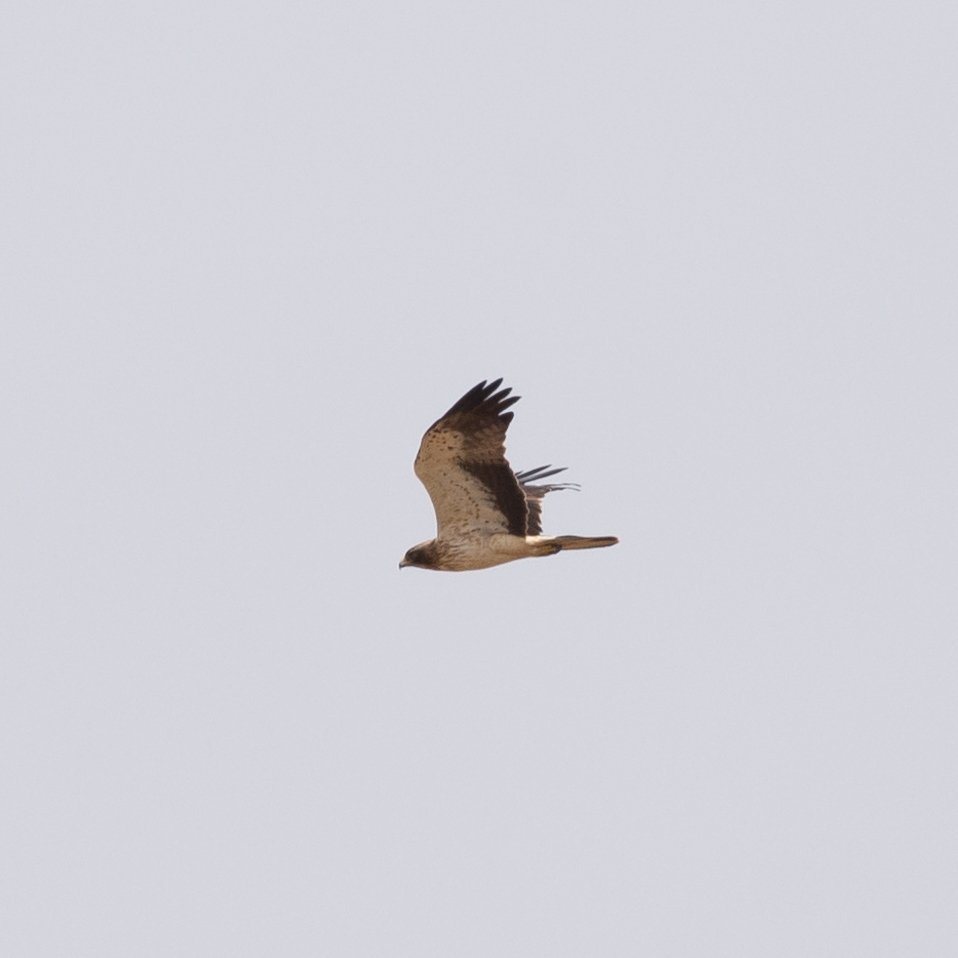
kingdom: Animalia
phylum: Chordata
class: Aves
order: Accipitriformes
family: Accipitridae
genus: Hieraaetus
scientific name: Hieraaetus pennatus
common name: Booted eagle
